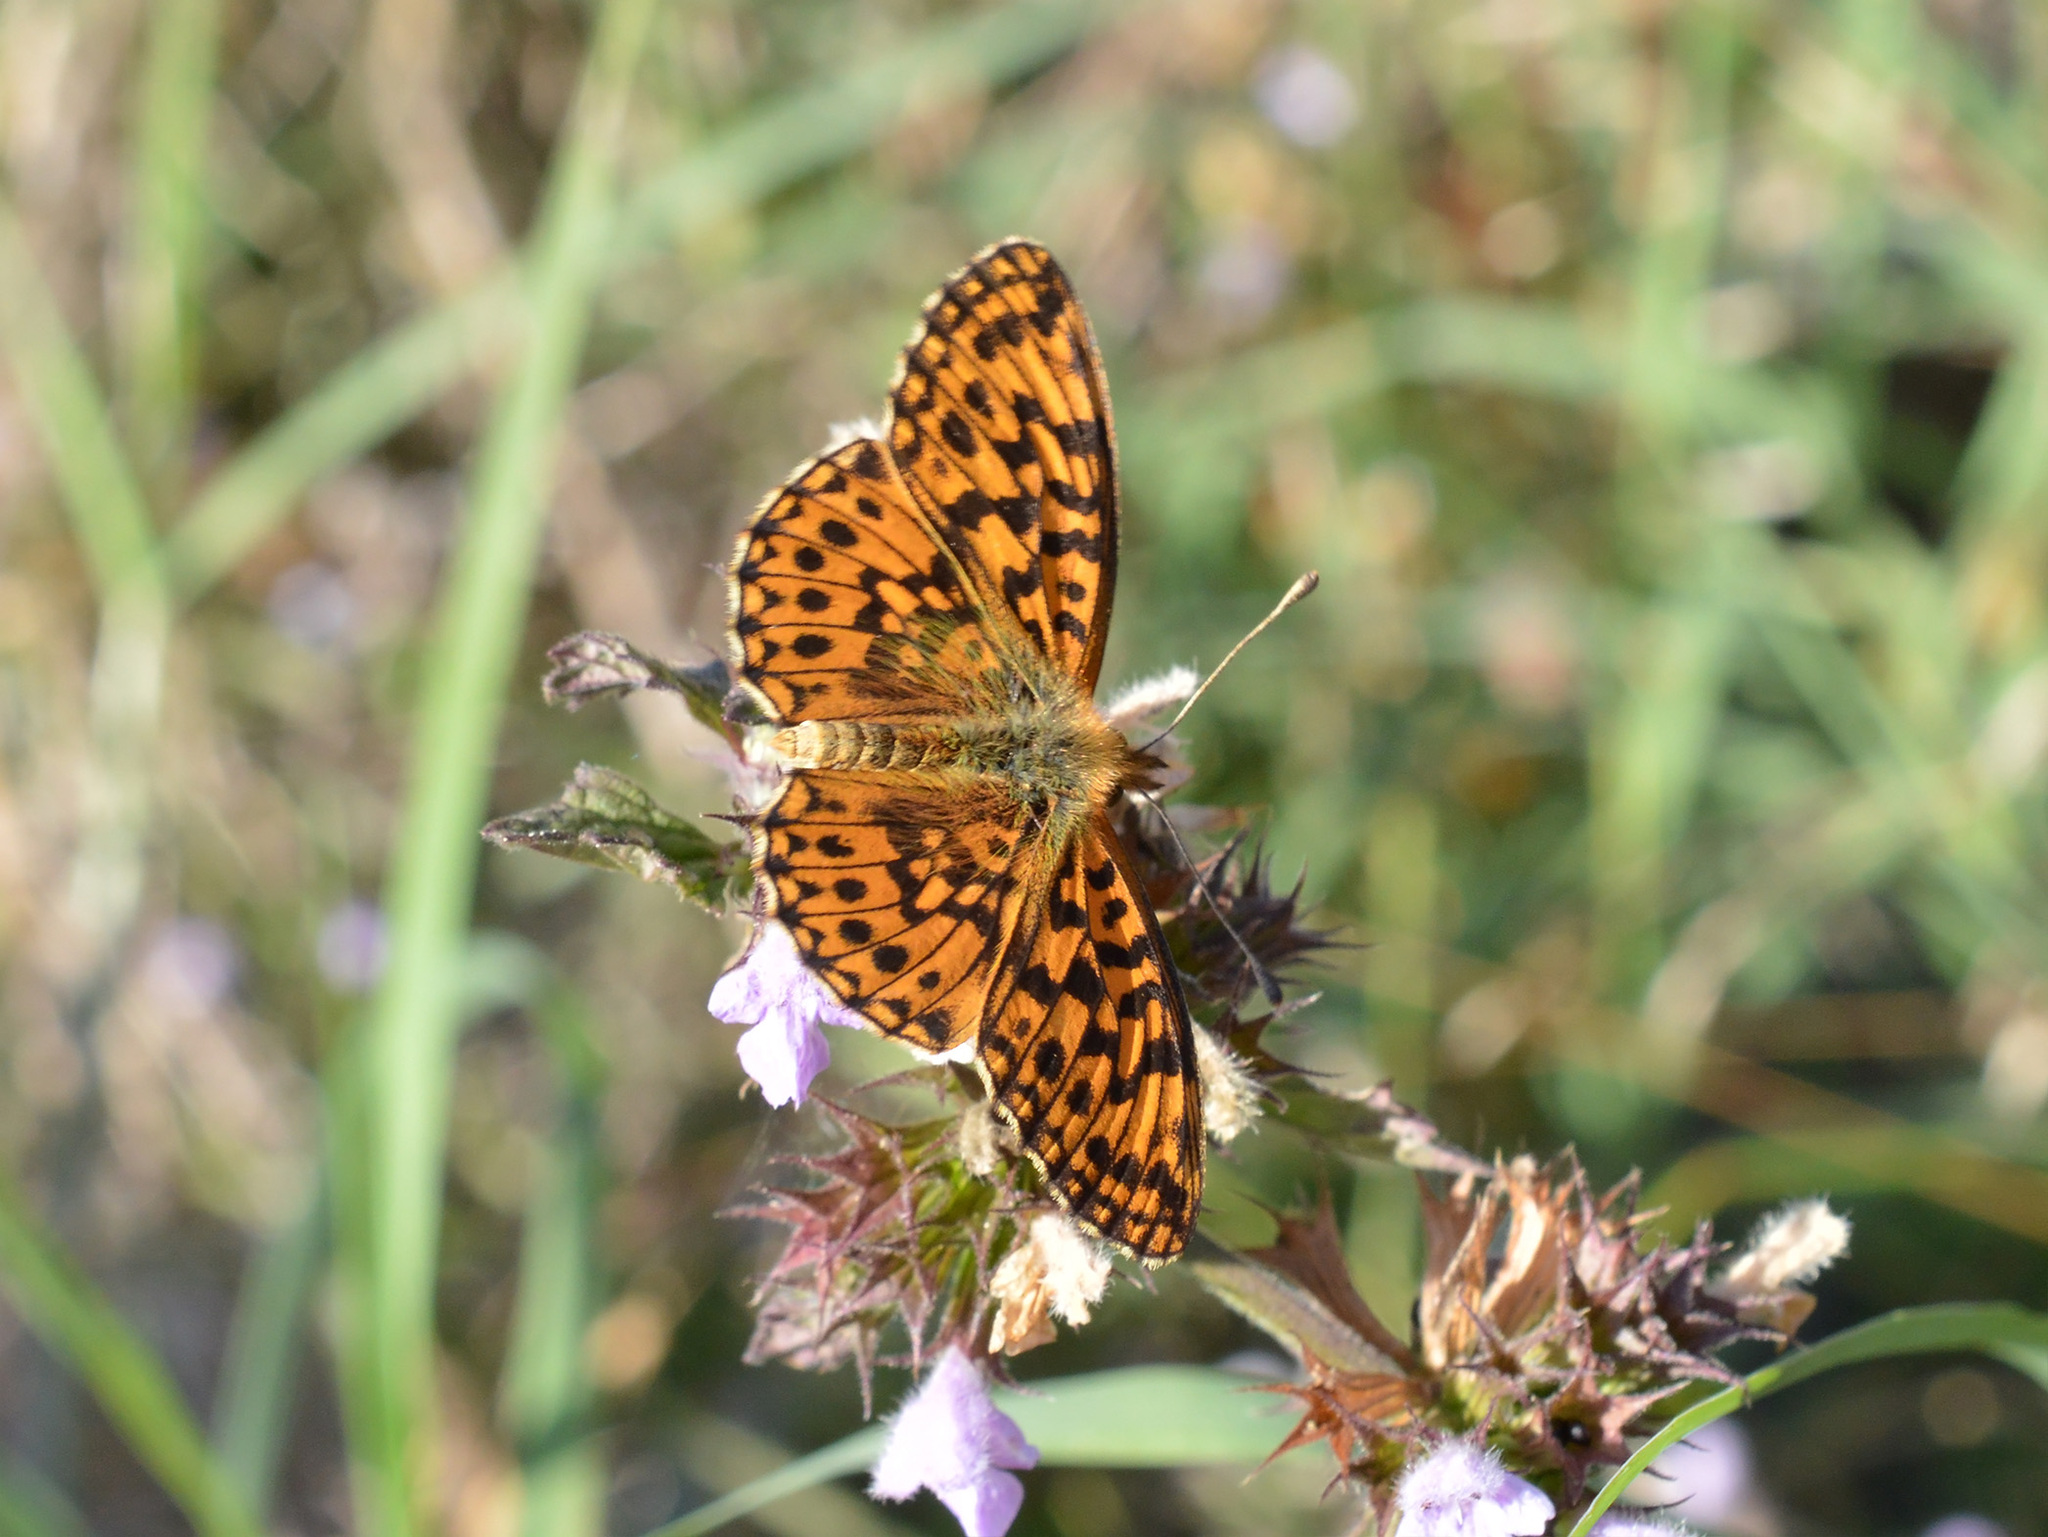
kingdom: Animalia
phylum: Arthropoda
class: Insecta
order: Lepidoptera
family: Nymphalidae
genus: Boloria
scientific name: Boloria dia
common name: Weaver's fritillary
